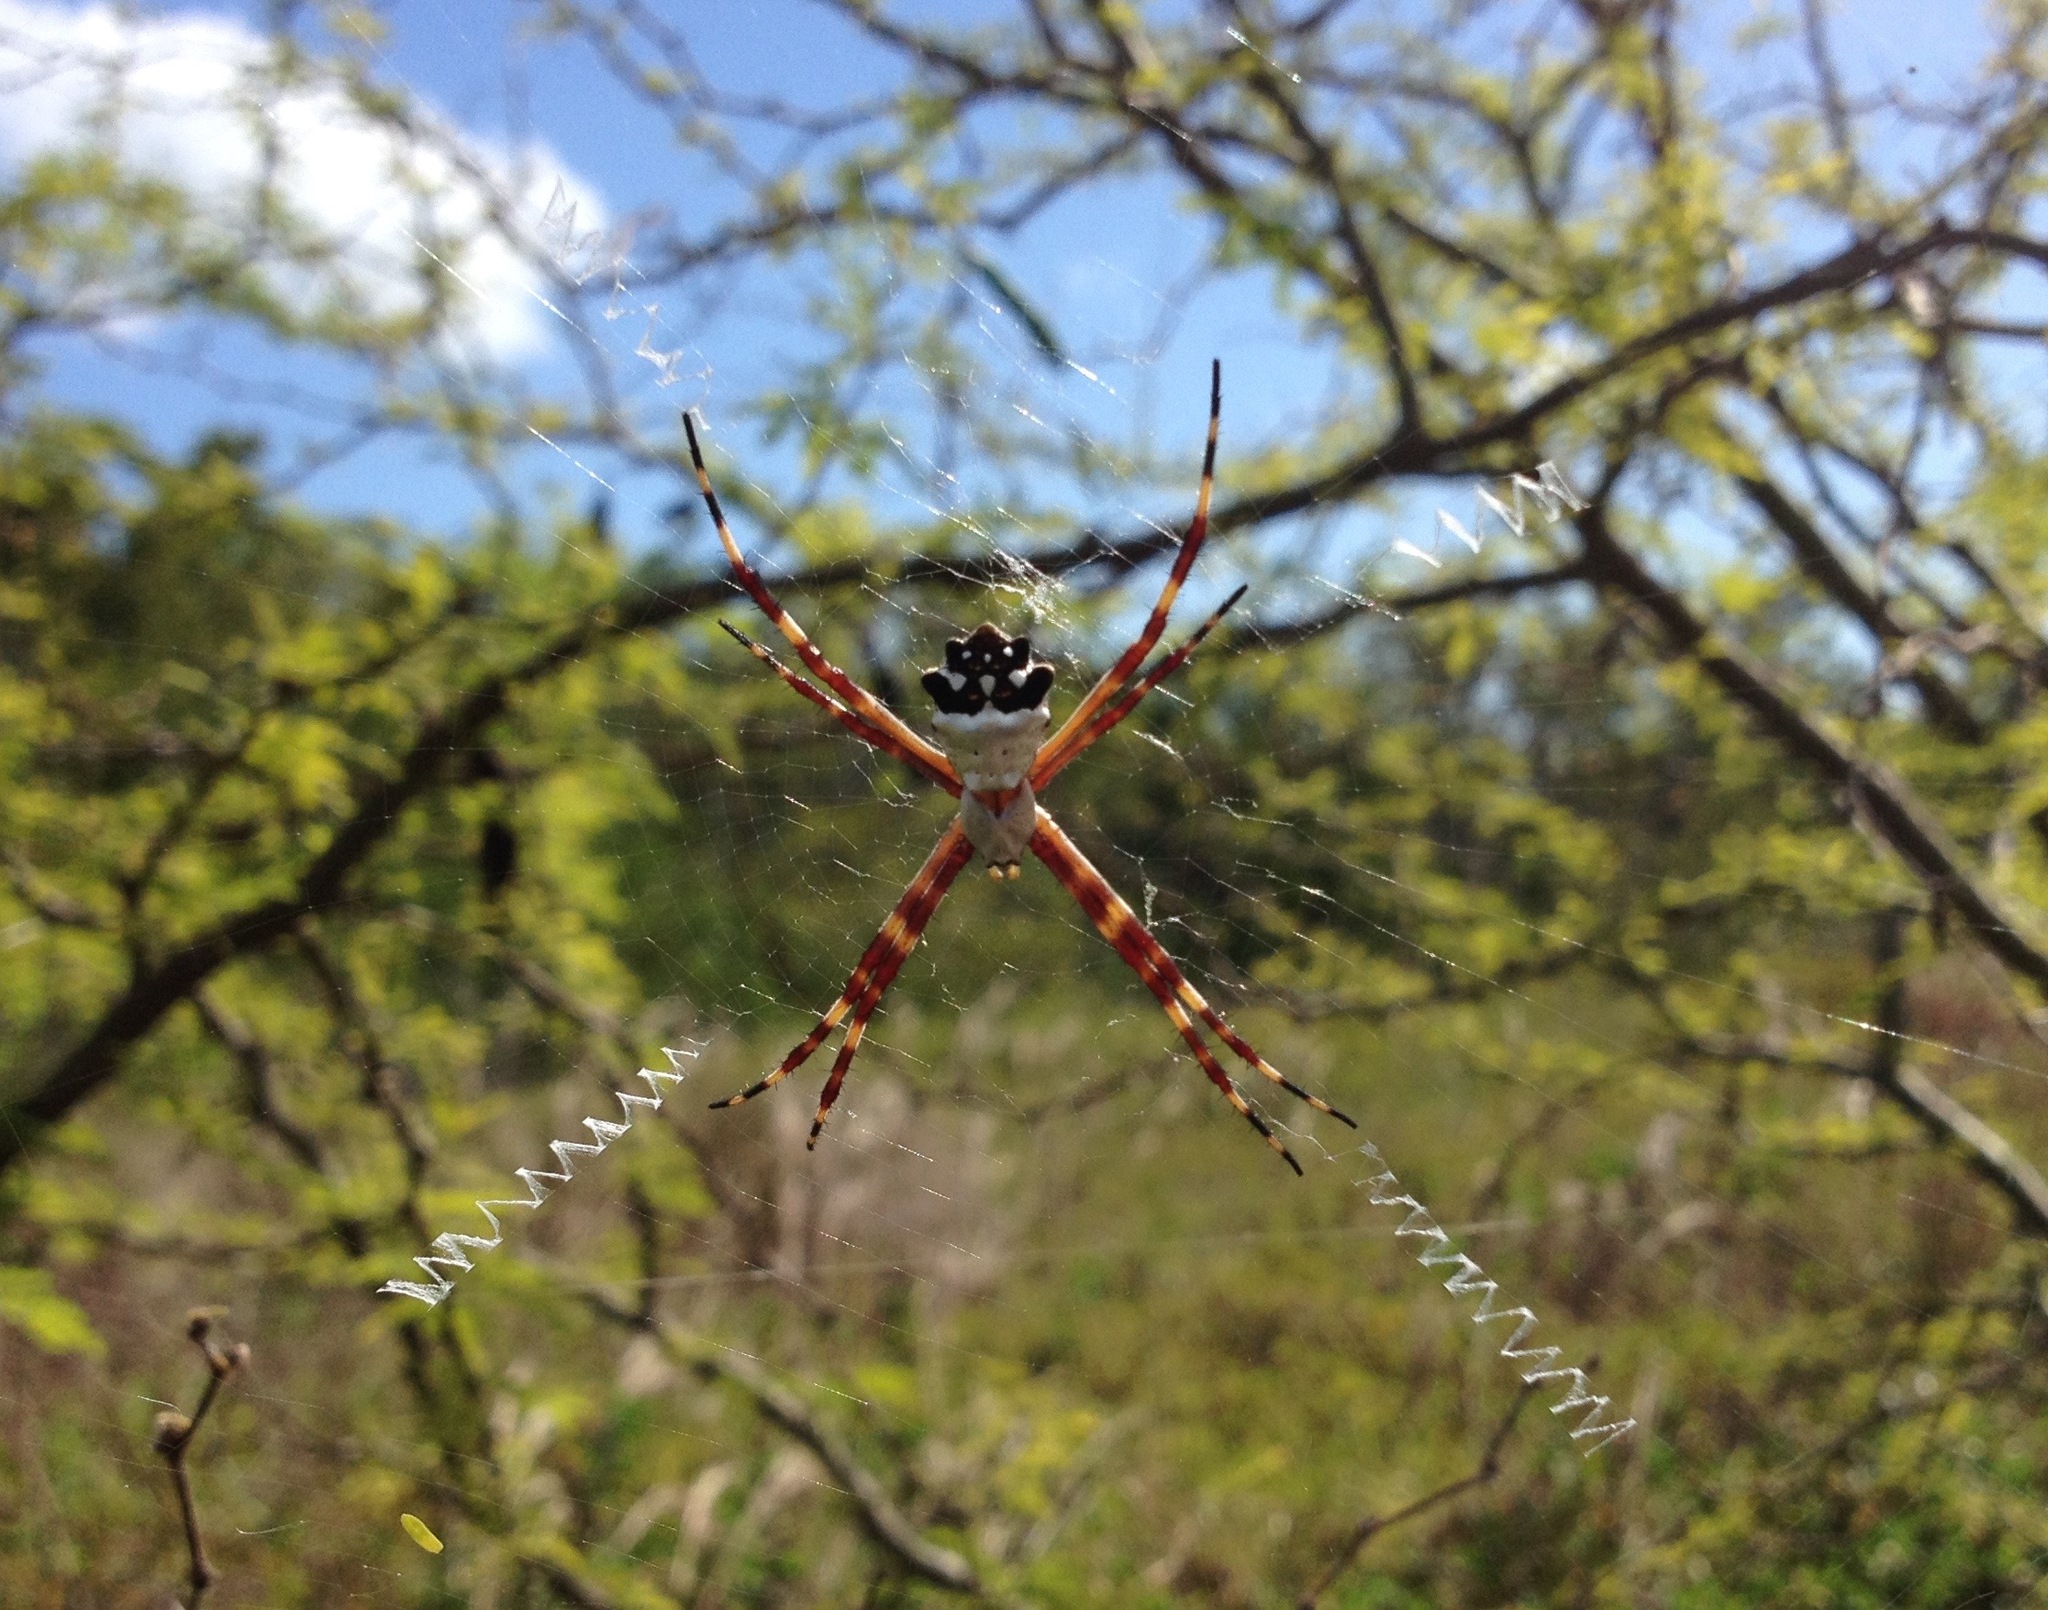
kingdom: Animalia
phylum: Arthropoda
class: Arachnida
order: Araneae
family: Araneidae
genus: Argiope
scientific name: Argiope argentata
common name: Orb weavers
